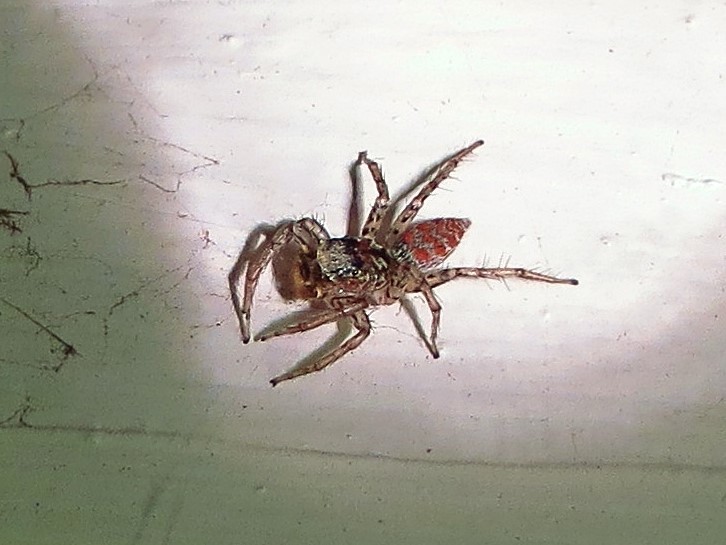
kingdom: Animalia
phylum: Arthropoda
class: Arachnida
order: Araneae
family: Salticidae
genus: Maevia
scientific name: Maevia inclemens
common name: Dimorphic jumper
